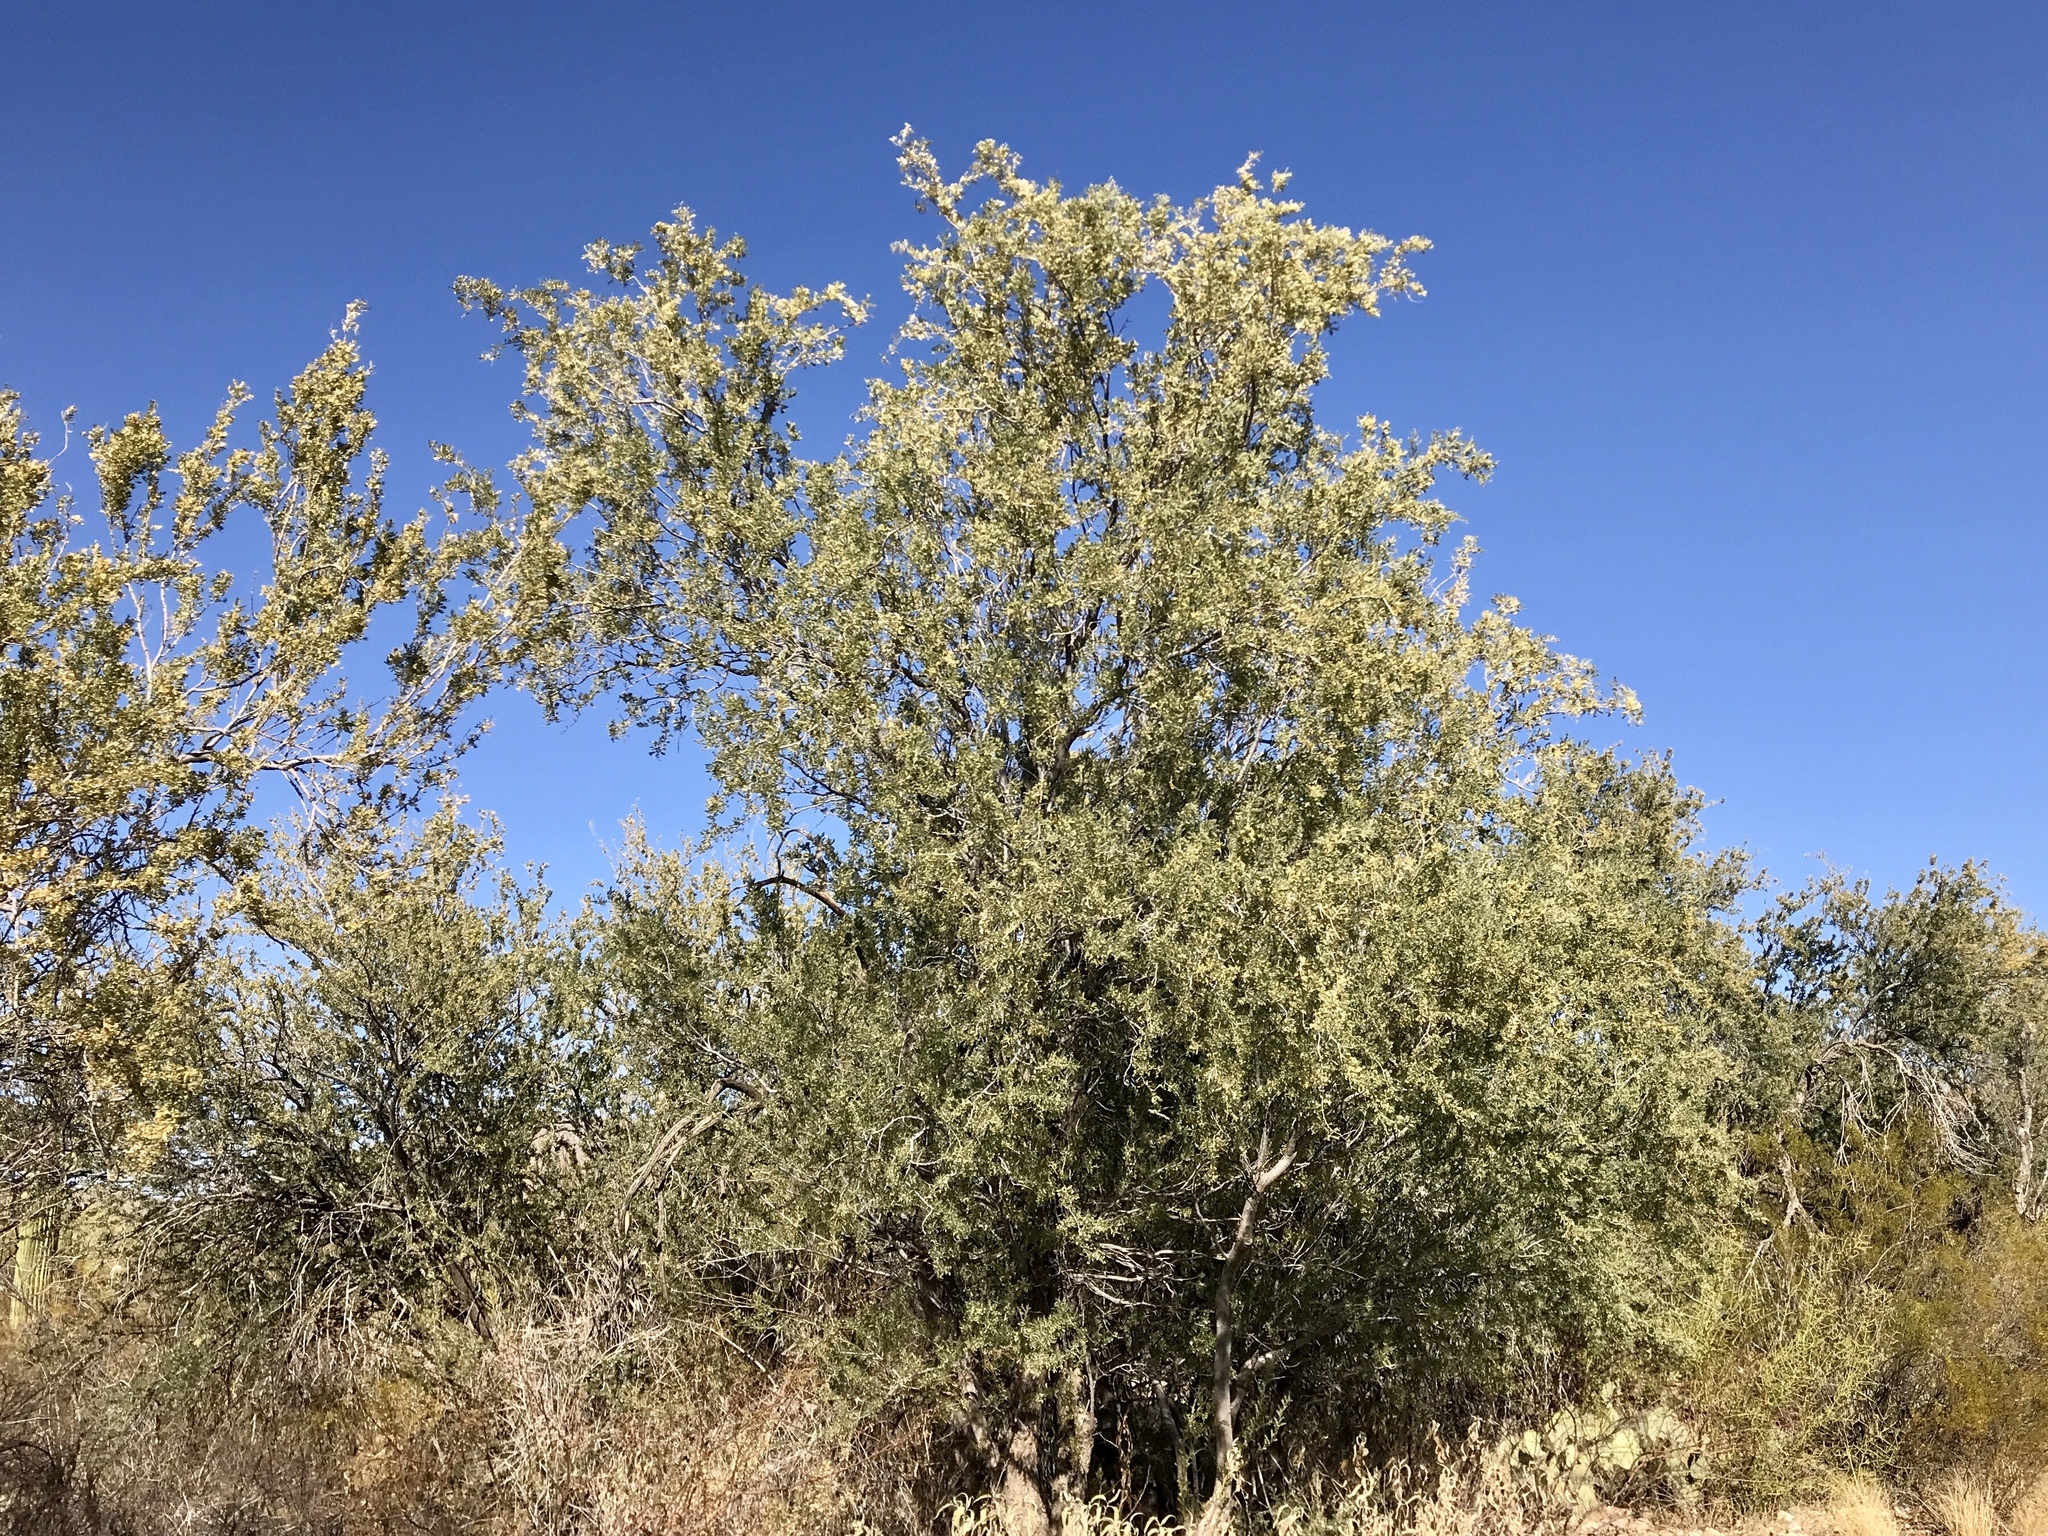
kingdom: Plantae
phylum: Tracheophyta
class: Magnoliopsida
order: Fabales
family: Fabaceae
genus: Olneya
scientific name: Olneya tesota
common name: Desert ironwood
